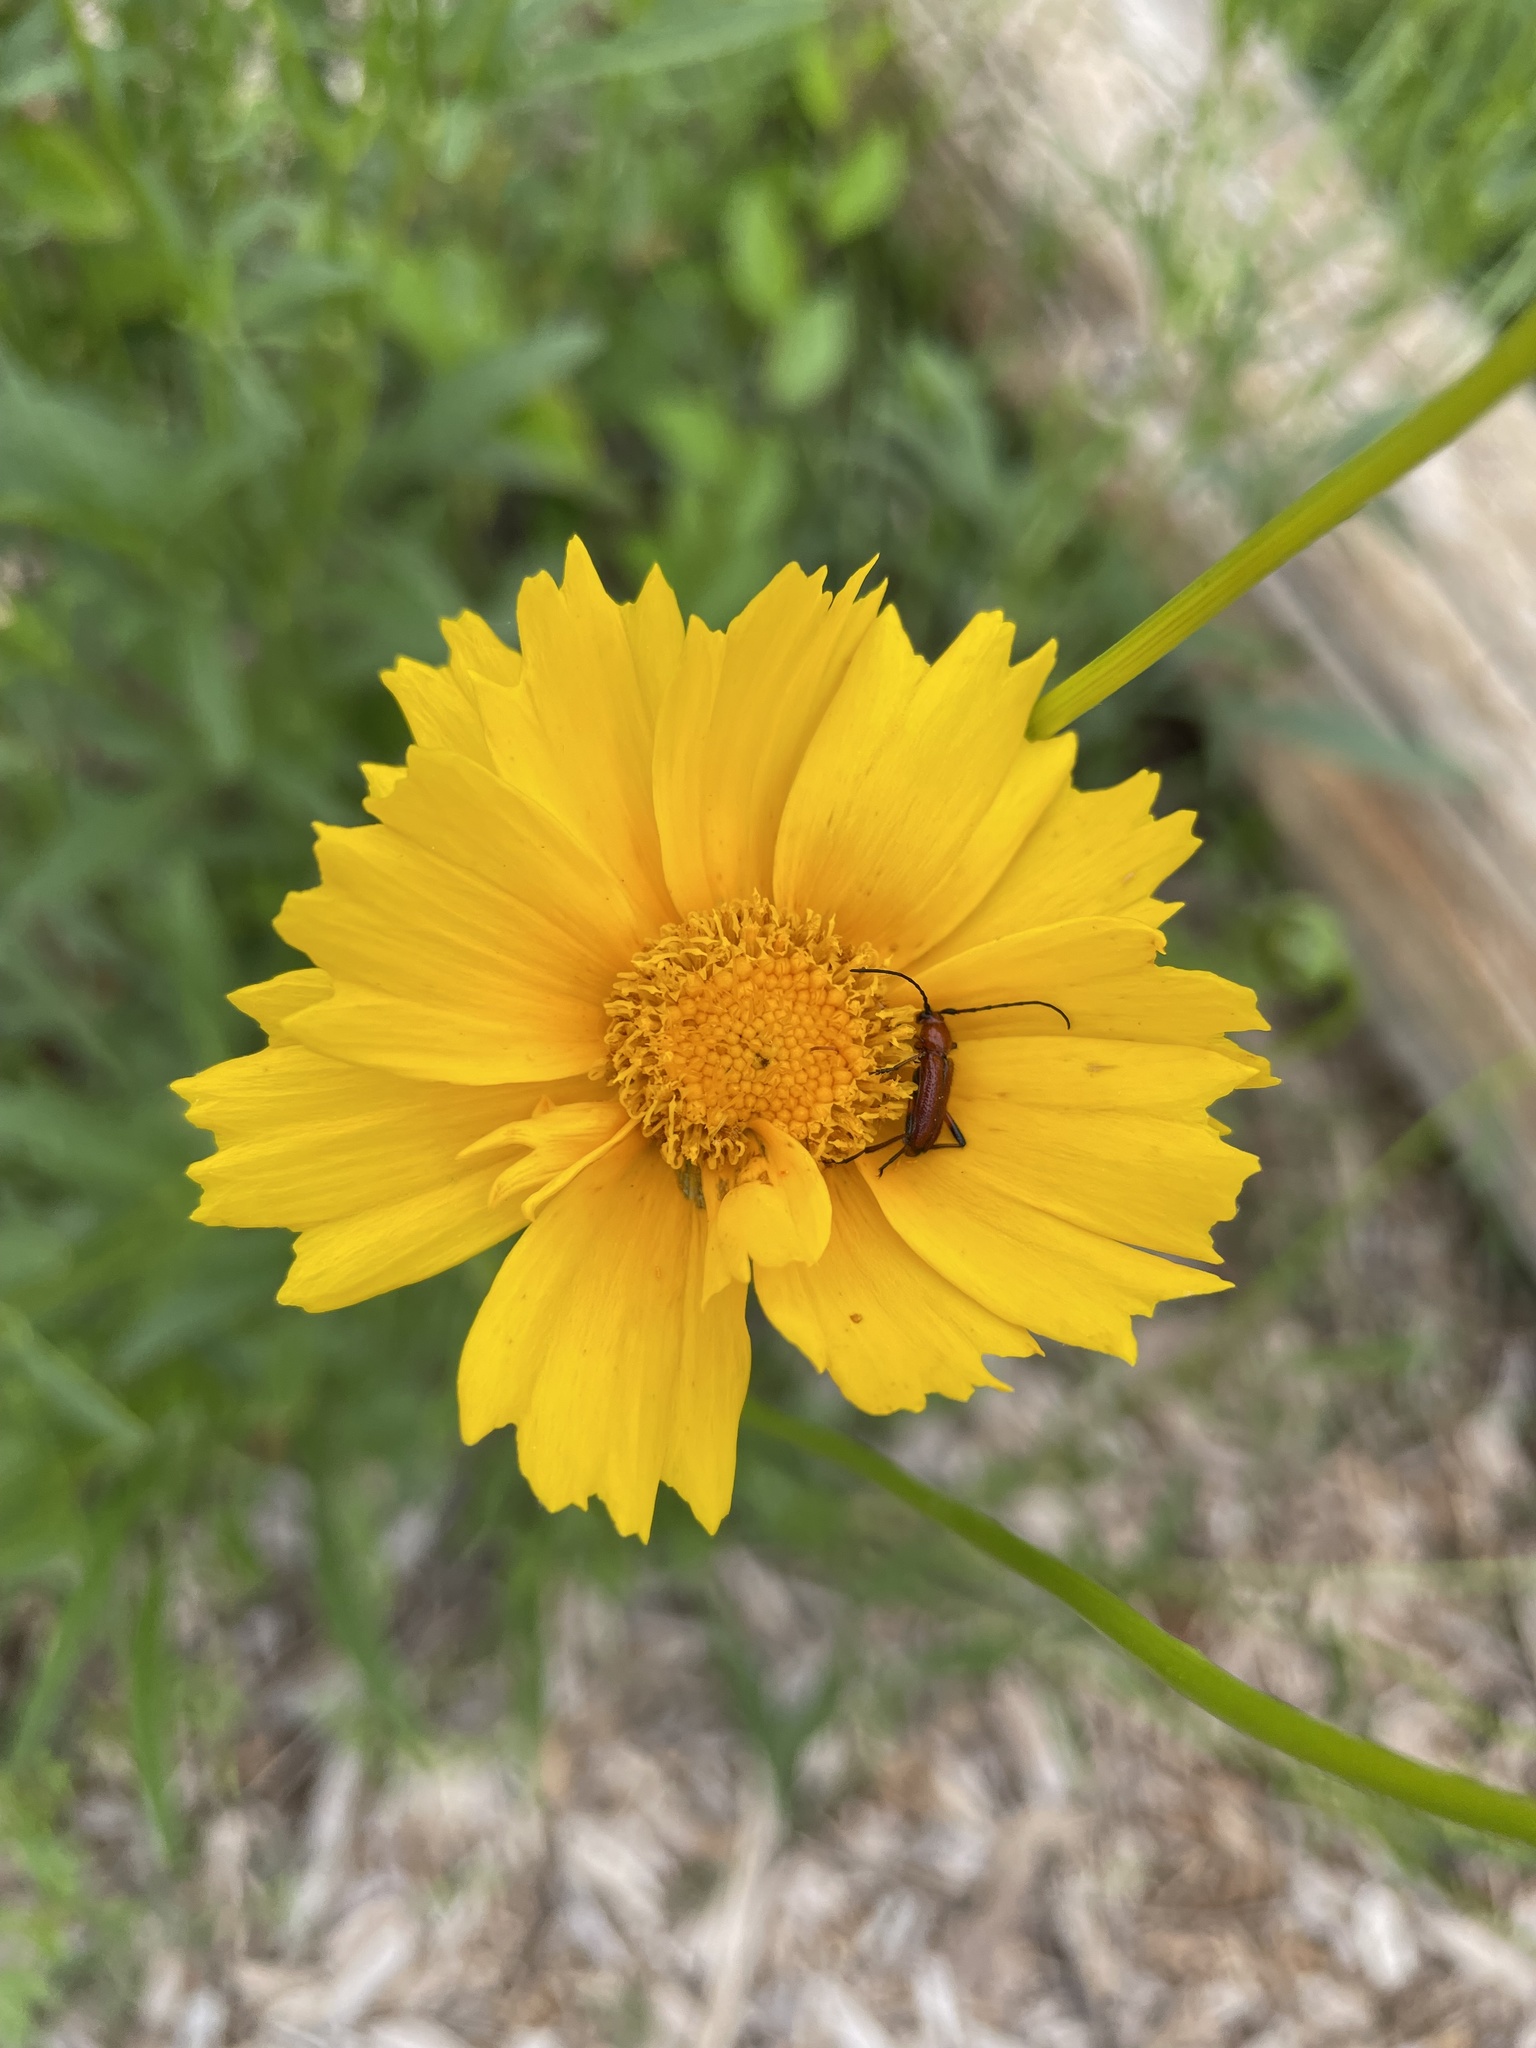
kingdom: Animalia
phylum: Arthropoda
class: Insecta
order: Coleoptera
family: Cerambycidae
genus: Batyle
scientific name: Batyle suturalis
